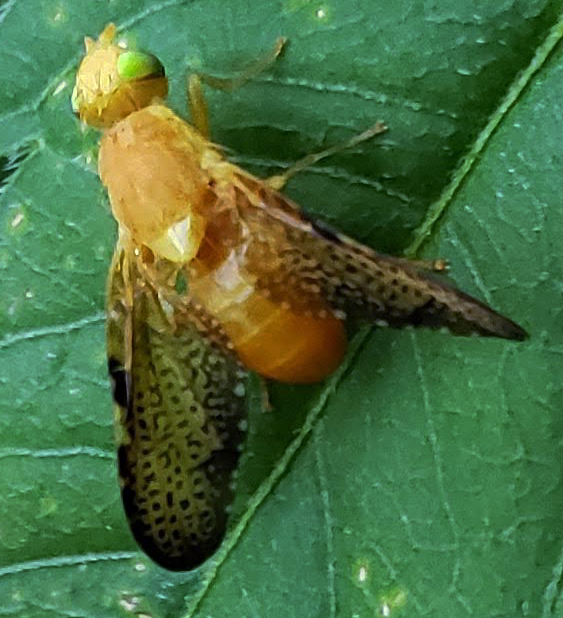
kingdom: Animalia
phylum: Arthropoda
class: Insecta
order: Diptera
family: Tephritidae
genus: Icterica
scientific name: Icterica seriata
